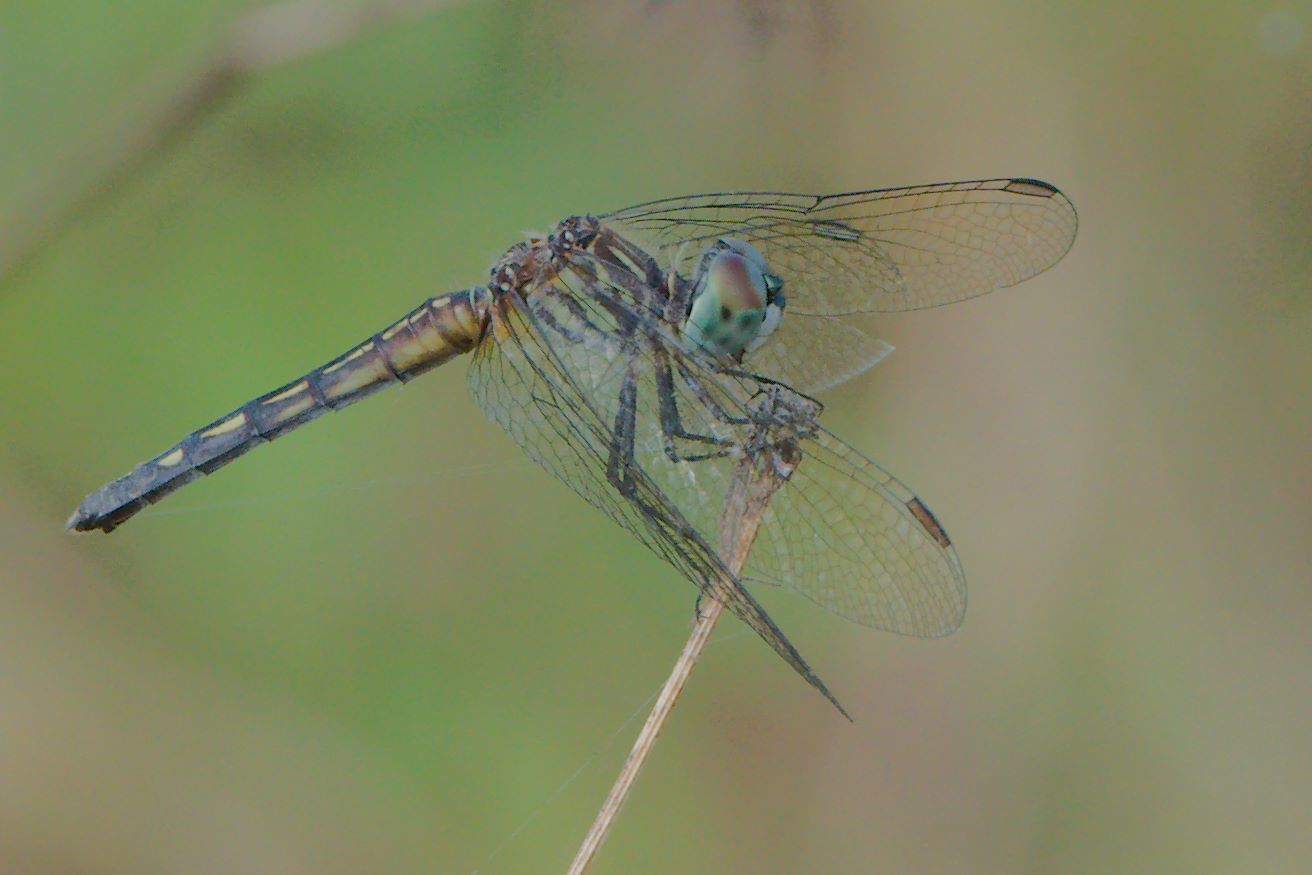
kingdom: Animalia
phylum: Arthropoda
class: Insecta
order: Odonata
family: Libellulidae
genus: Pachydiplax
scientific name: Pachydiplax longipennis
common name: Blue dasher
